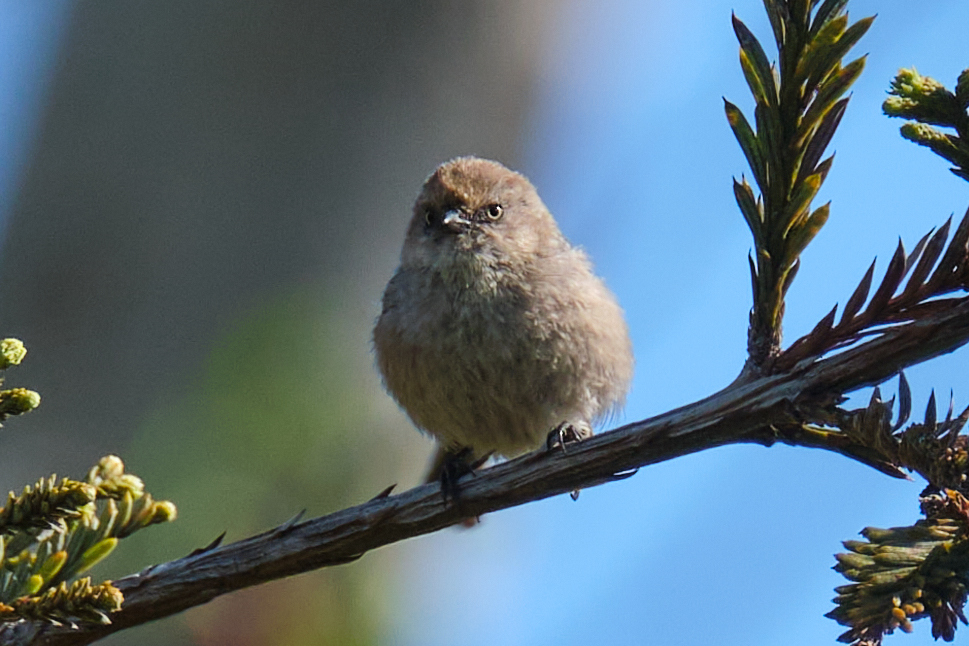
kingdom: Animalia
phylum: Chordata
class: Aves
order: Passeriformes
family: Aegithalidae
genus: Psaltriparus
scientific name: Psaltriparus minimus
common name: American bushtit
